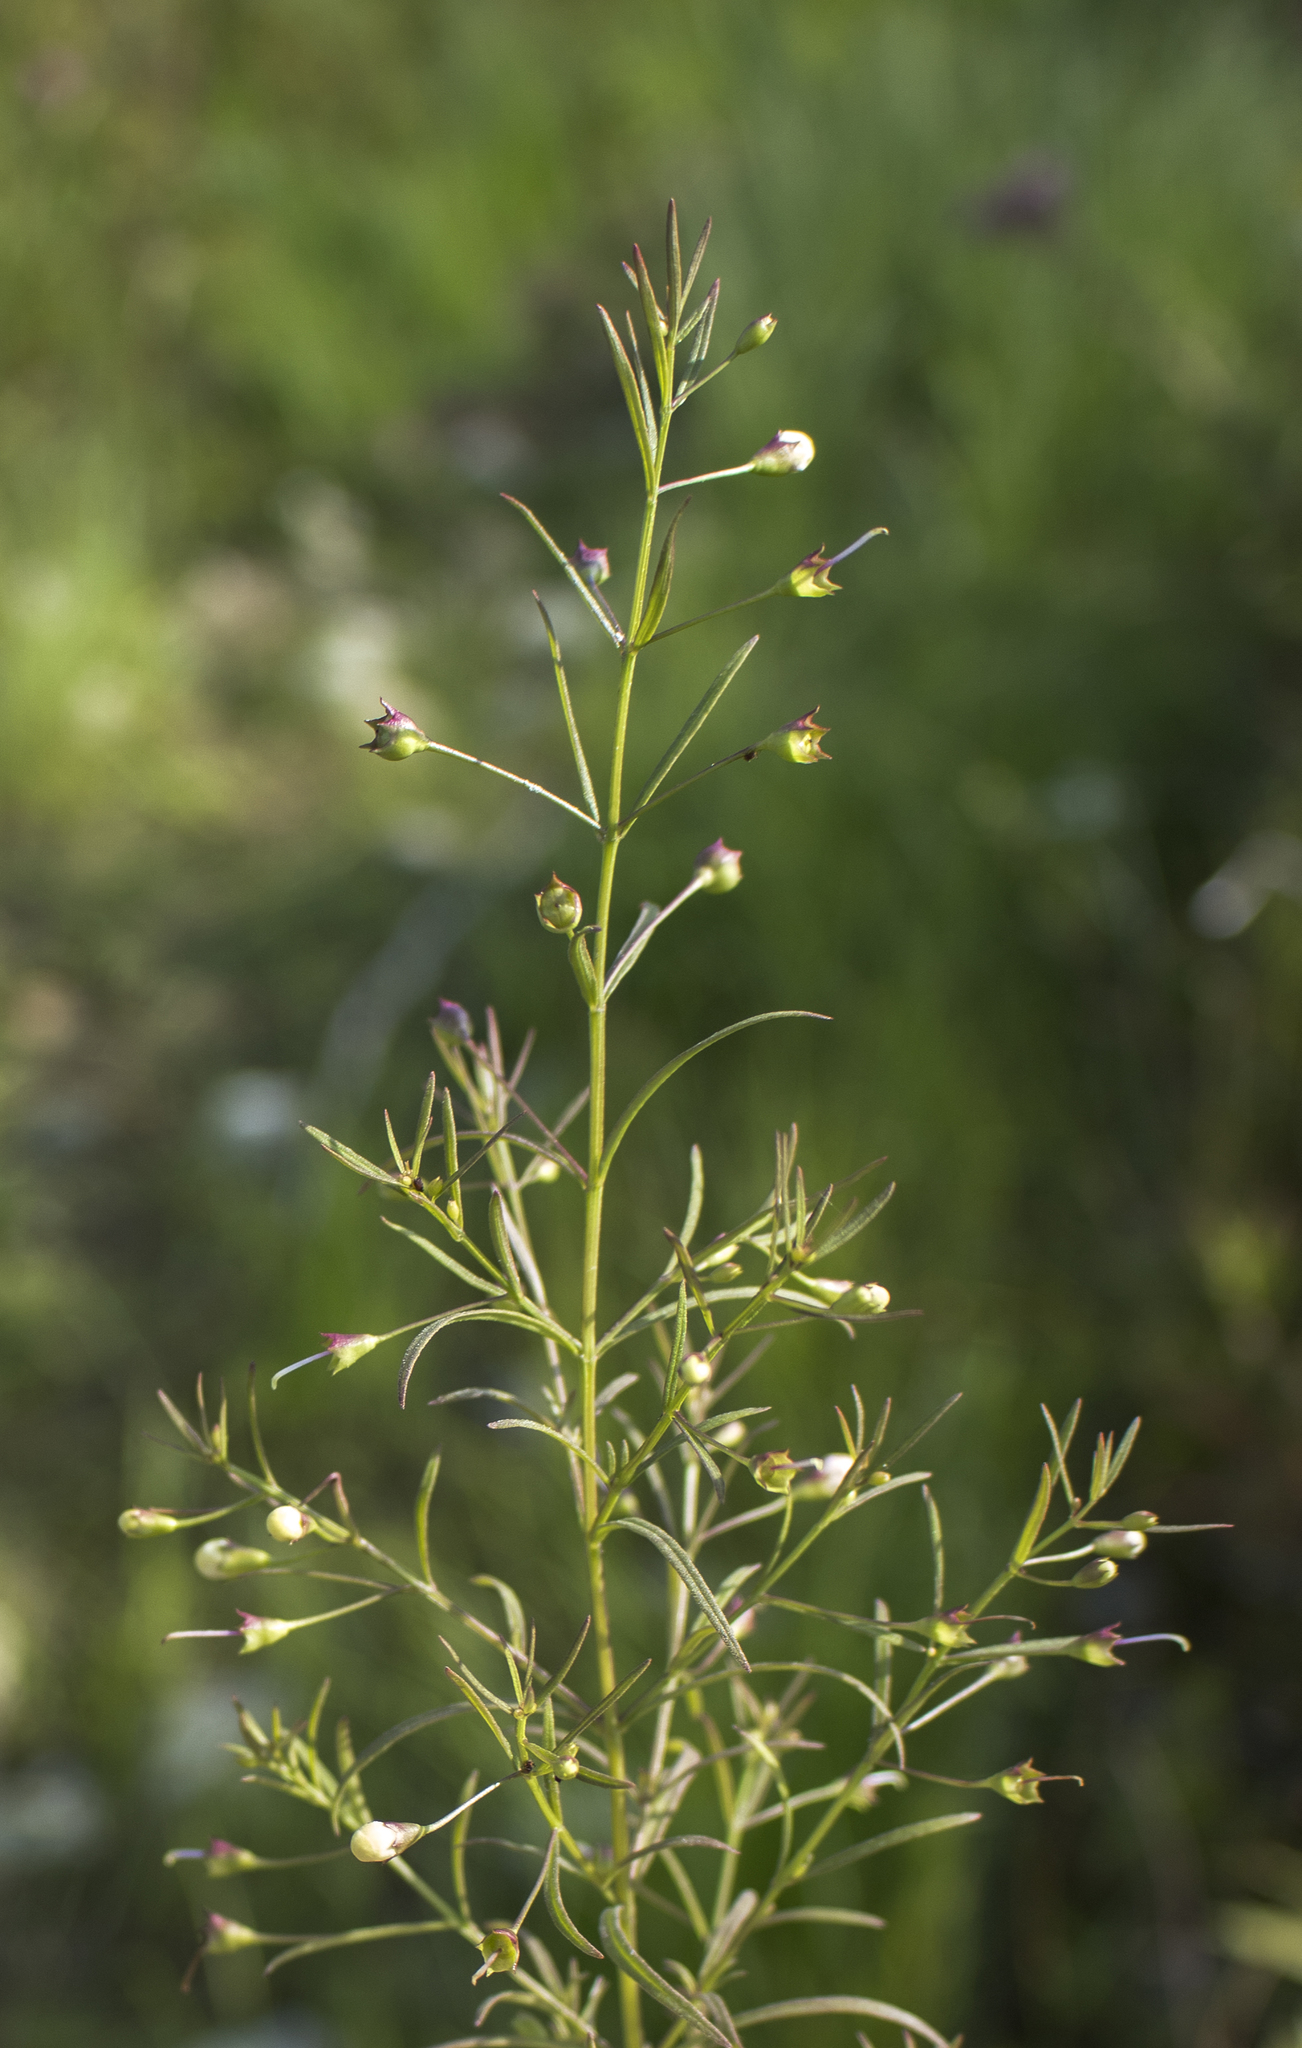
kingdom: Plantae
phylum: Tracheophyta
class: Magnoliopsida
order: Lamiales
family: Orobanchaceae
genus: Agalinis
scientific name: Agalinis tenuifolia
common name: Slender agalinis
